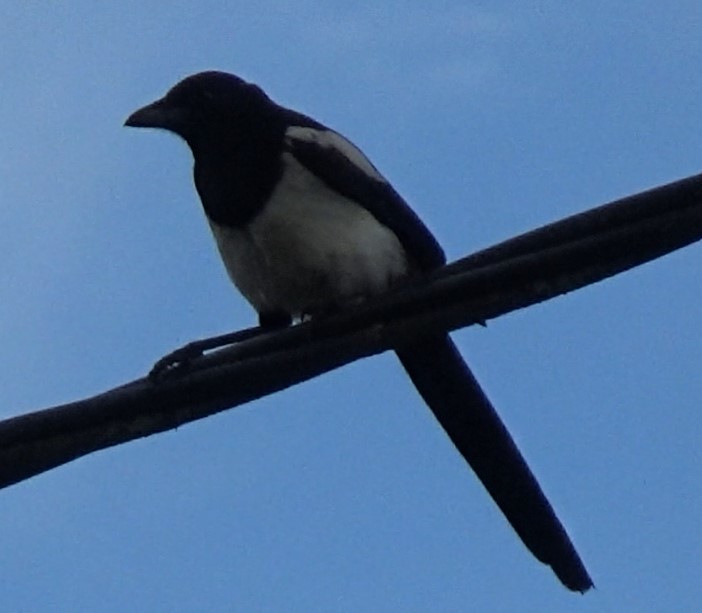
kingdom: Animalia
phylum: Chordata
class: Aves
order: Passeriformes
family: Corvidae
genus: Pica
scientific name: Pica pica
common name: Eurasian magpie
